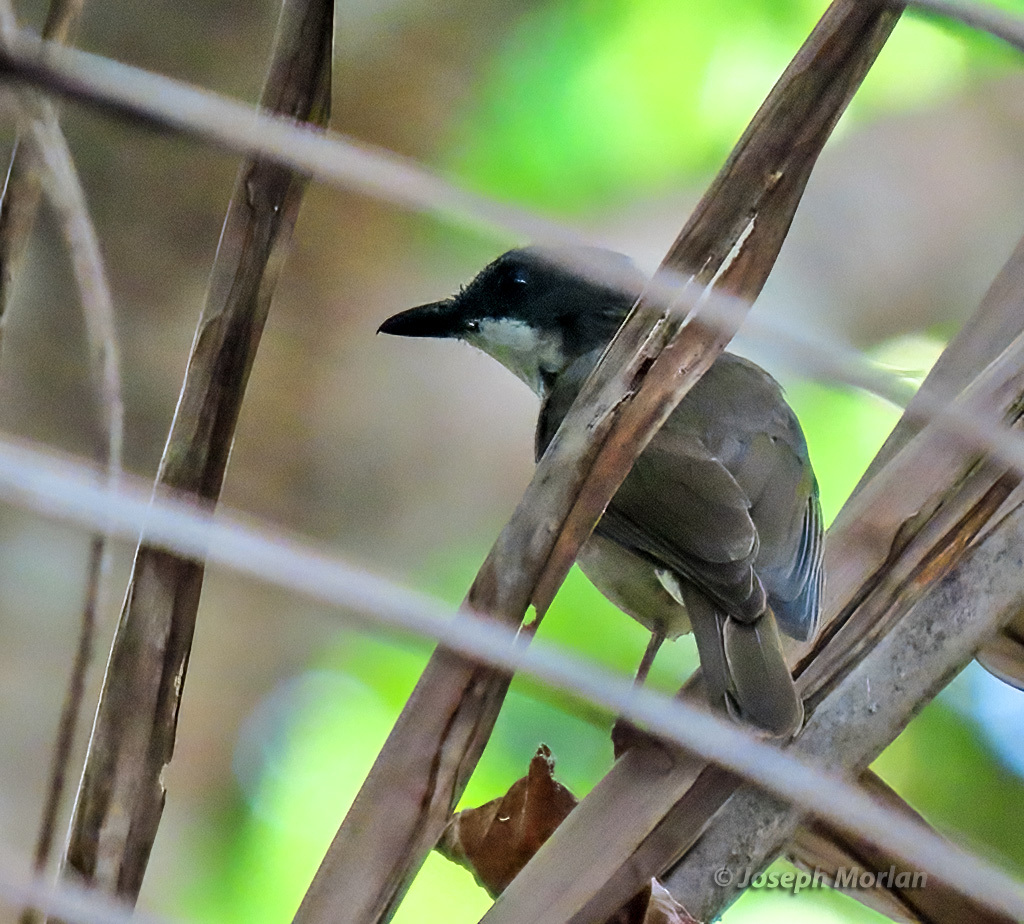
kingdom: Animalia
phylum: Chordata
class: Aves
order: Passeriformes
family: Pachycephalidae
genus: Pachycephala
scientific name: Pachycephala phaionota
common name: Island whistler
